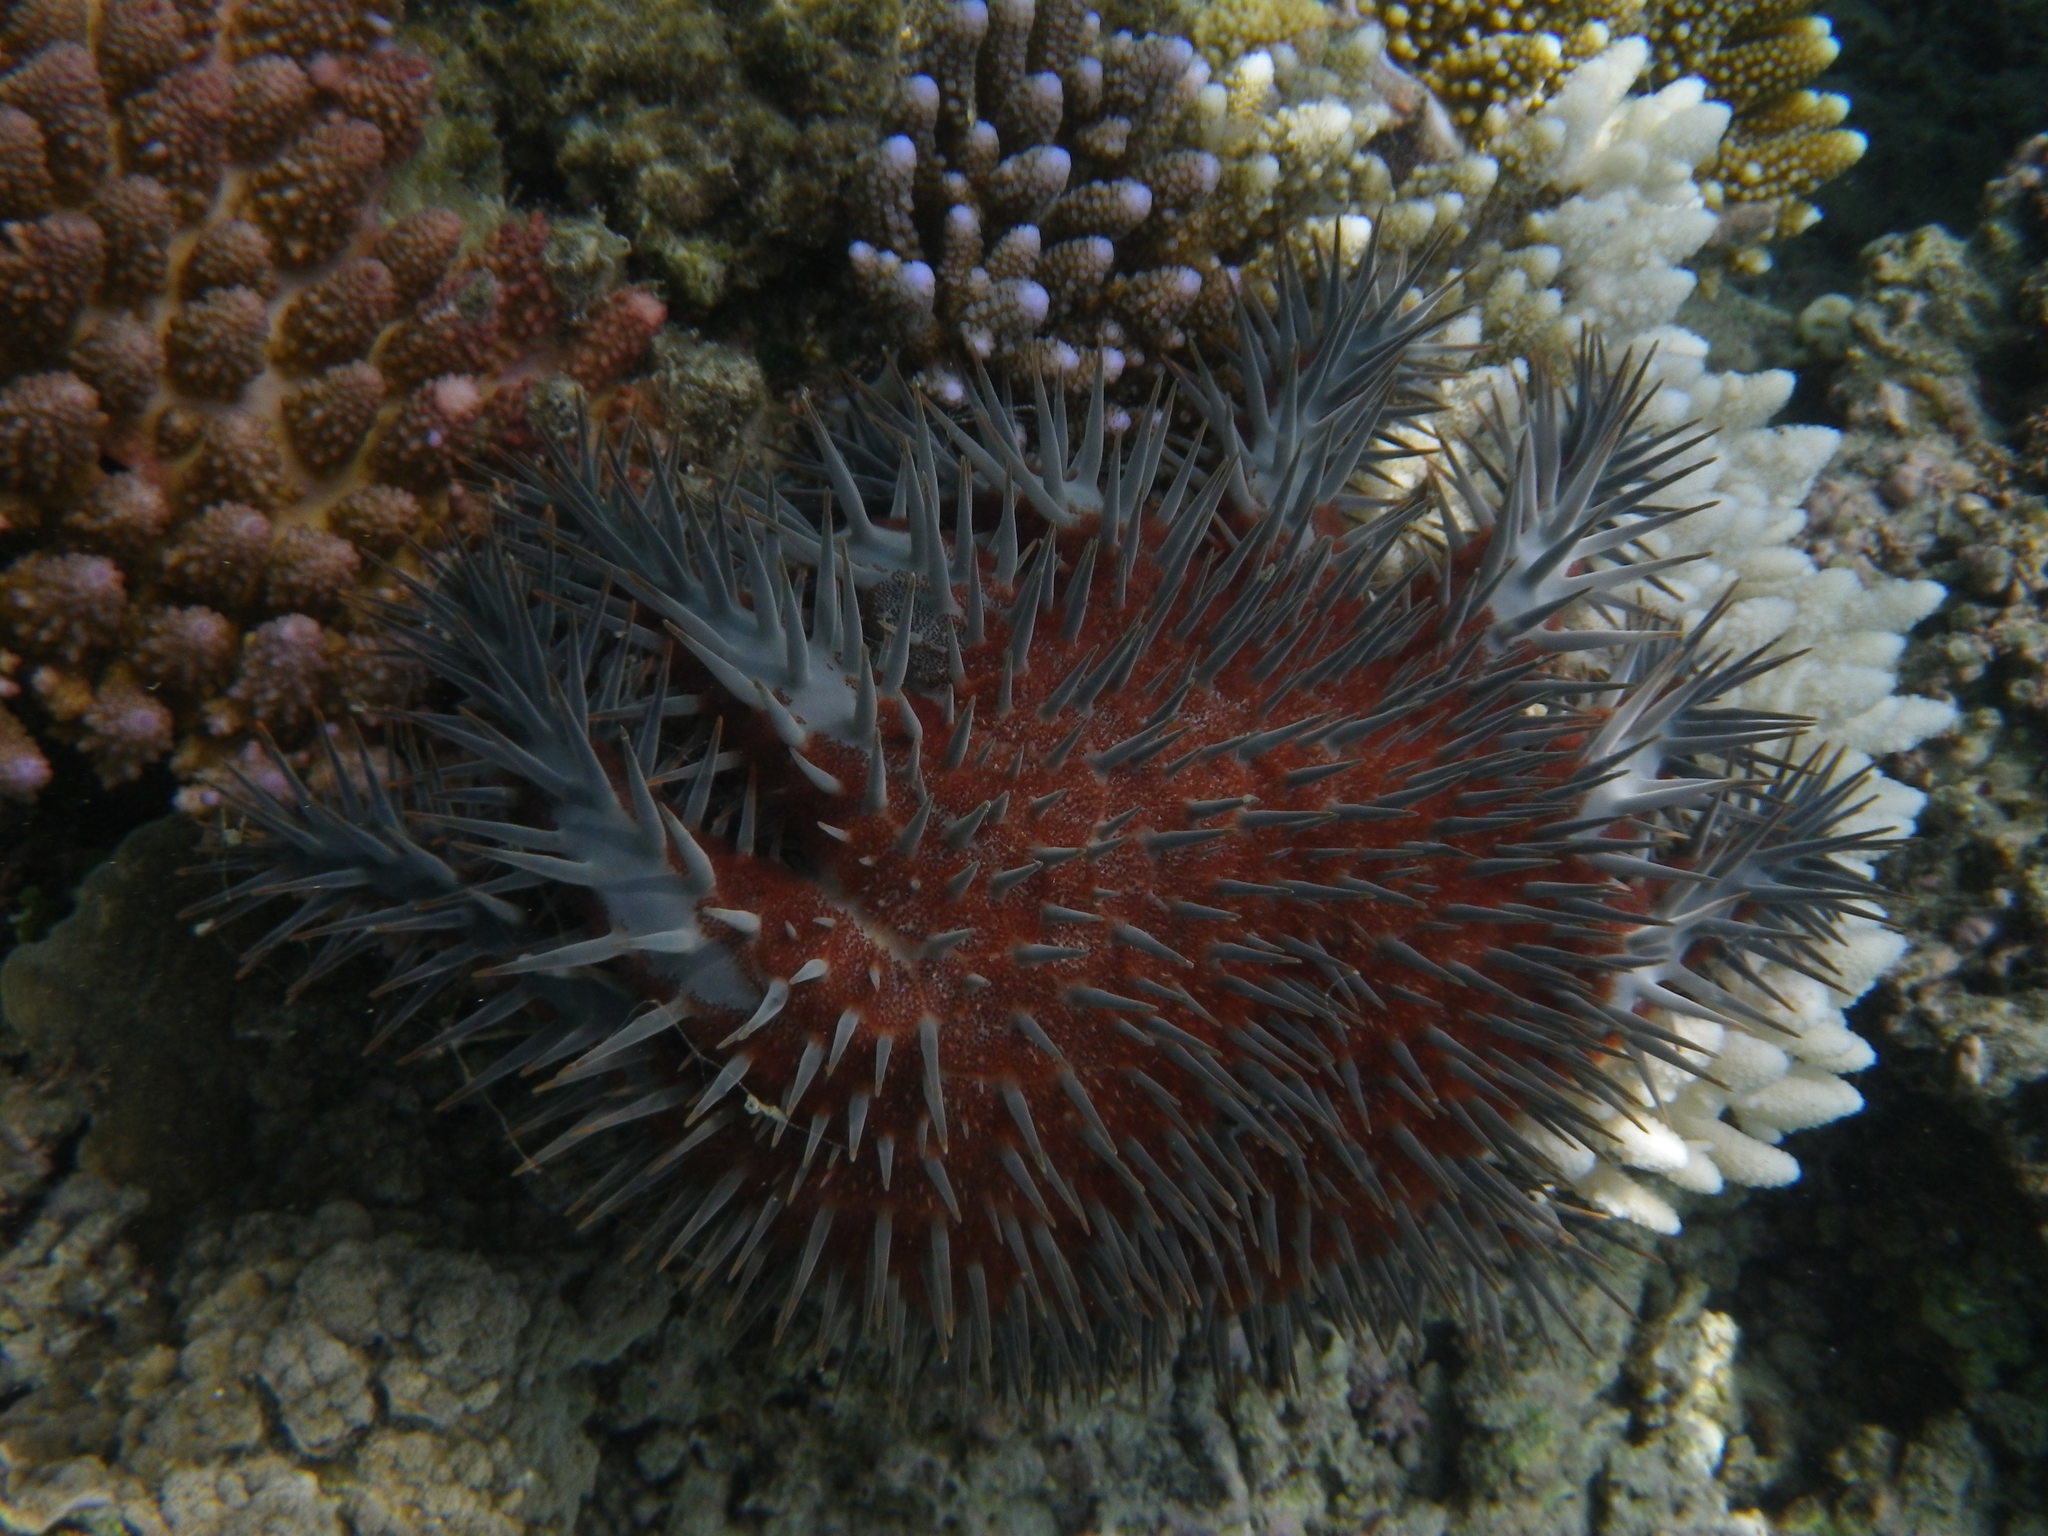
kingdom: Animalia
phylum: Echinodermata
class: Asteroidea
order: Valvatida
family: Acanthasteridae
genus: Acanthaster
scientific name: Acanthaster planci
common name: Crown-of-thorns
